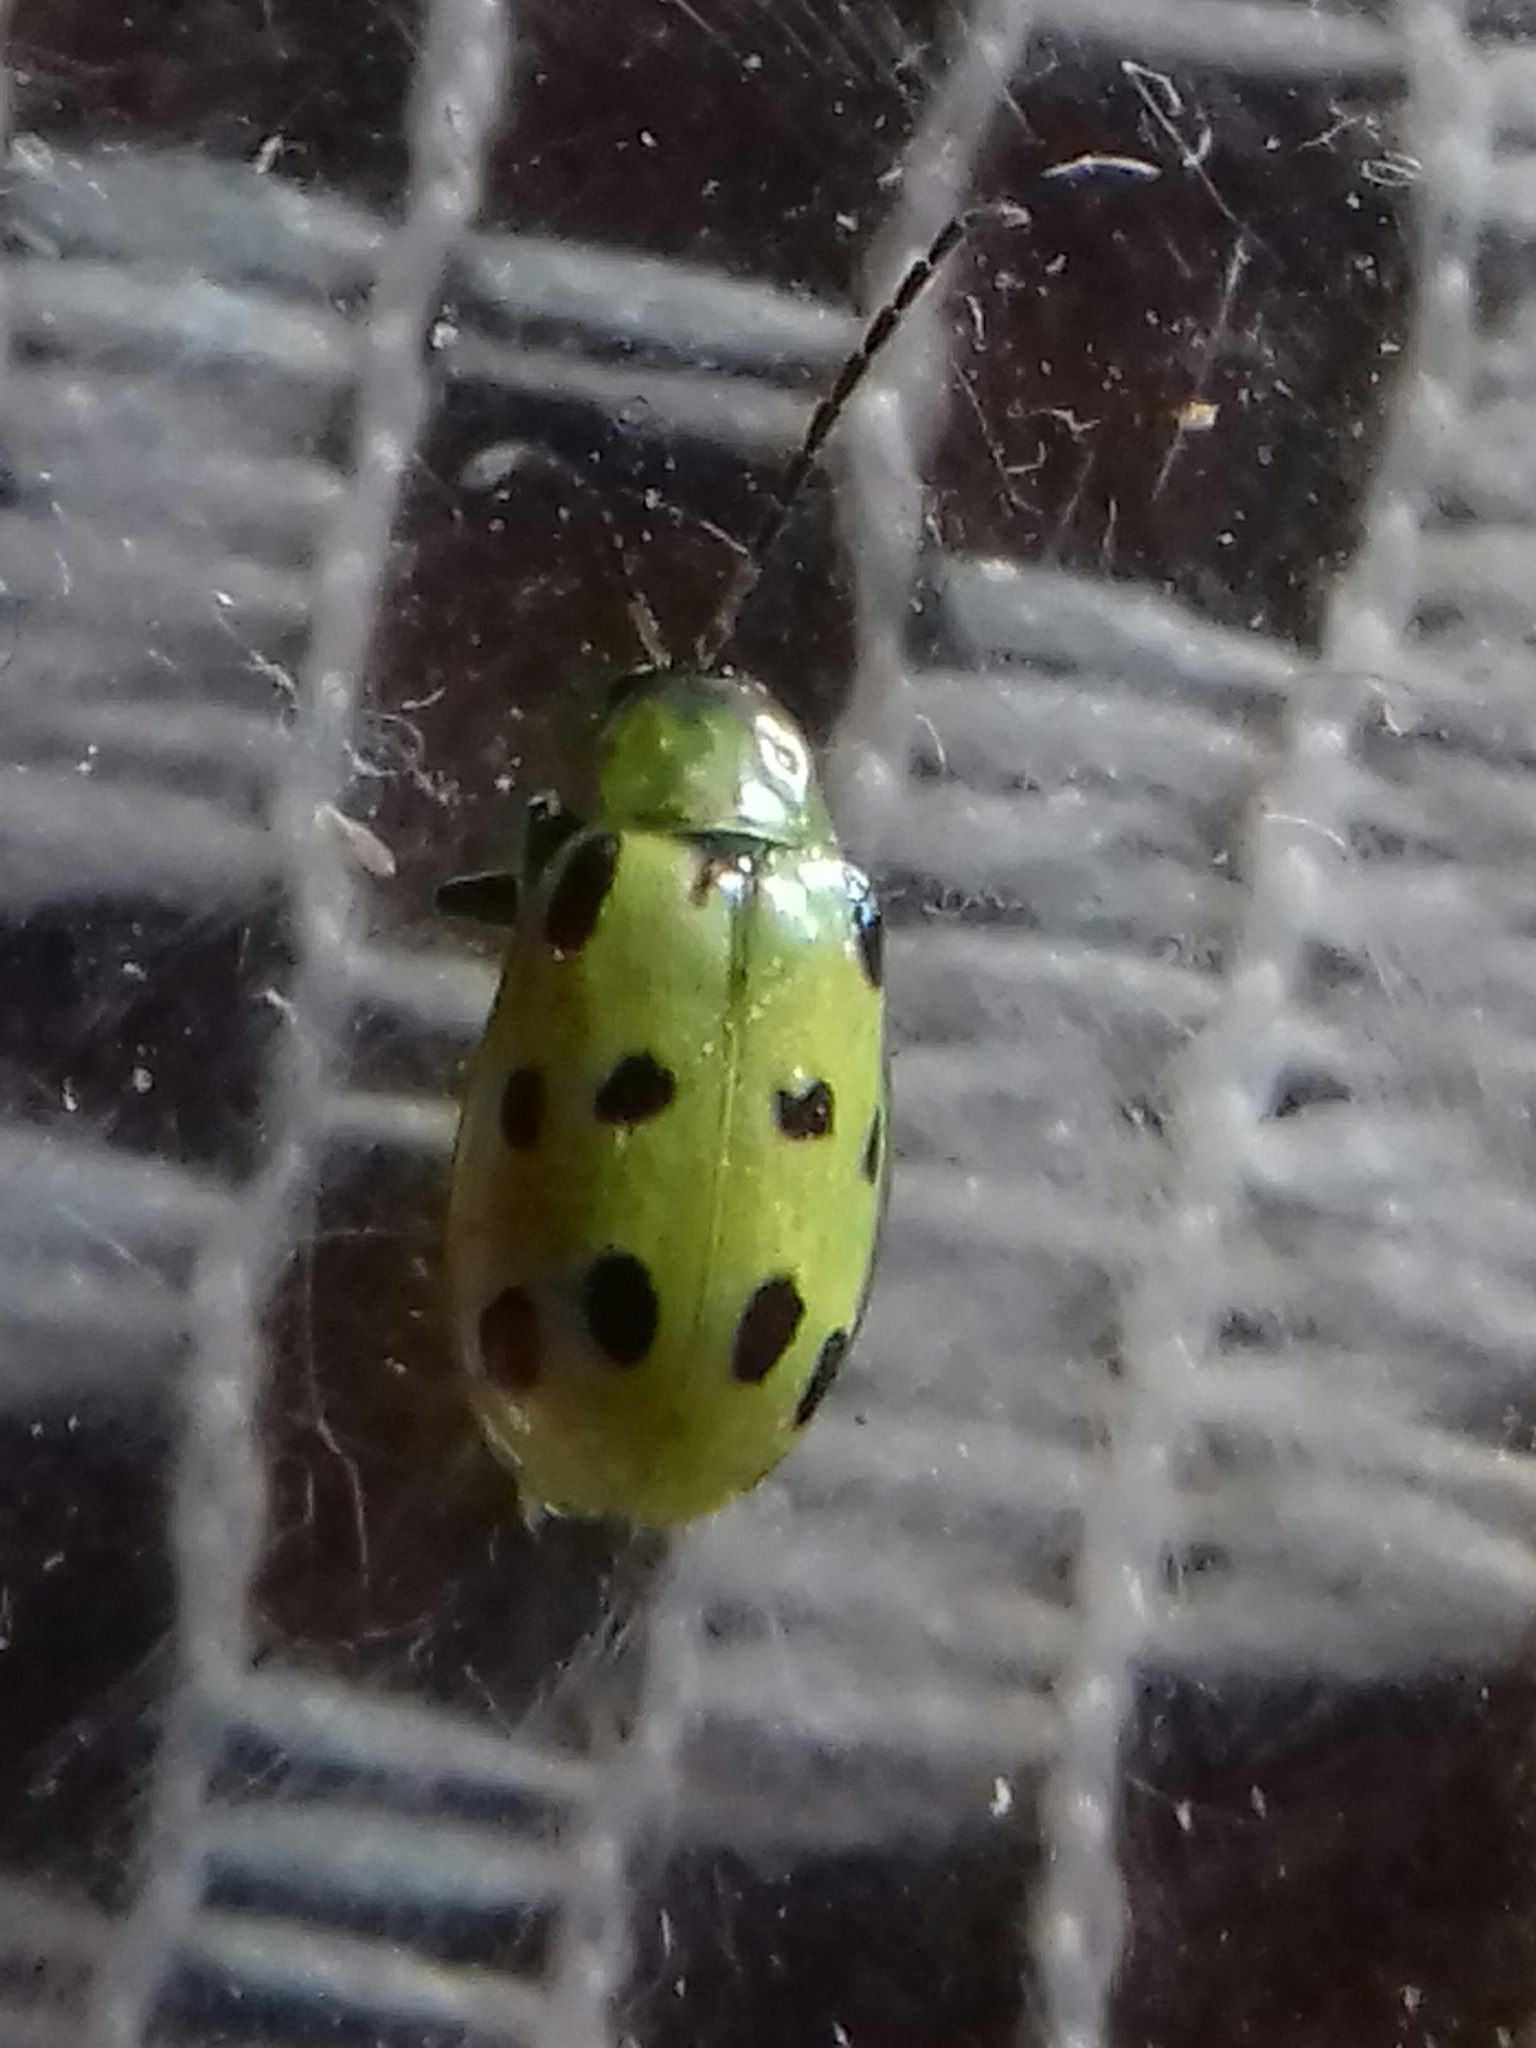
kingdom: Animalia
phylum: Arthropoda
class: Insecta
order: Coleoptera
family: Chrysomelidae
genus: Diabrotica
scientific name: Diabrotica undecimpunctata
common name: Spotted cucumber beetle
